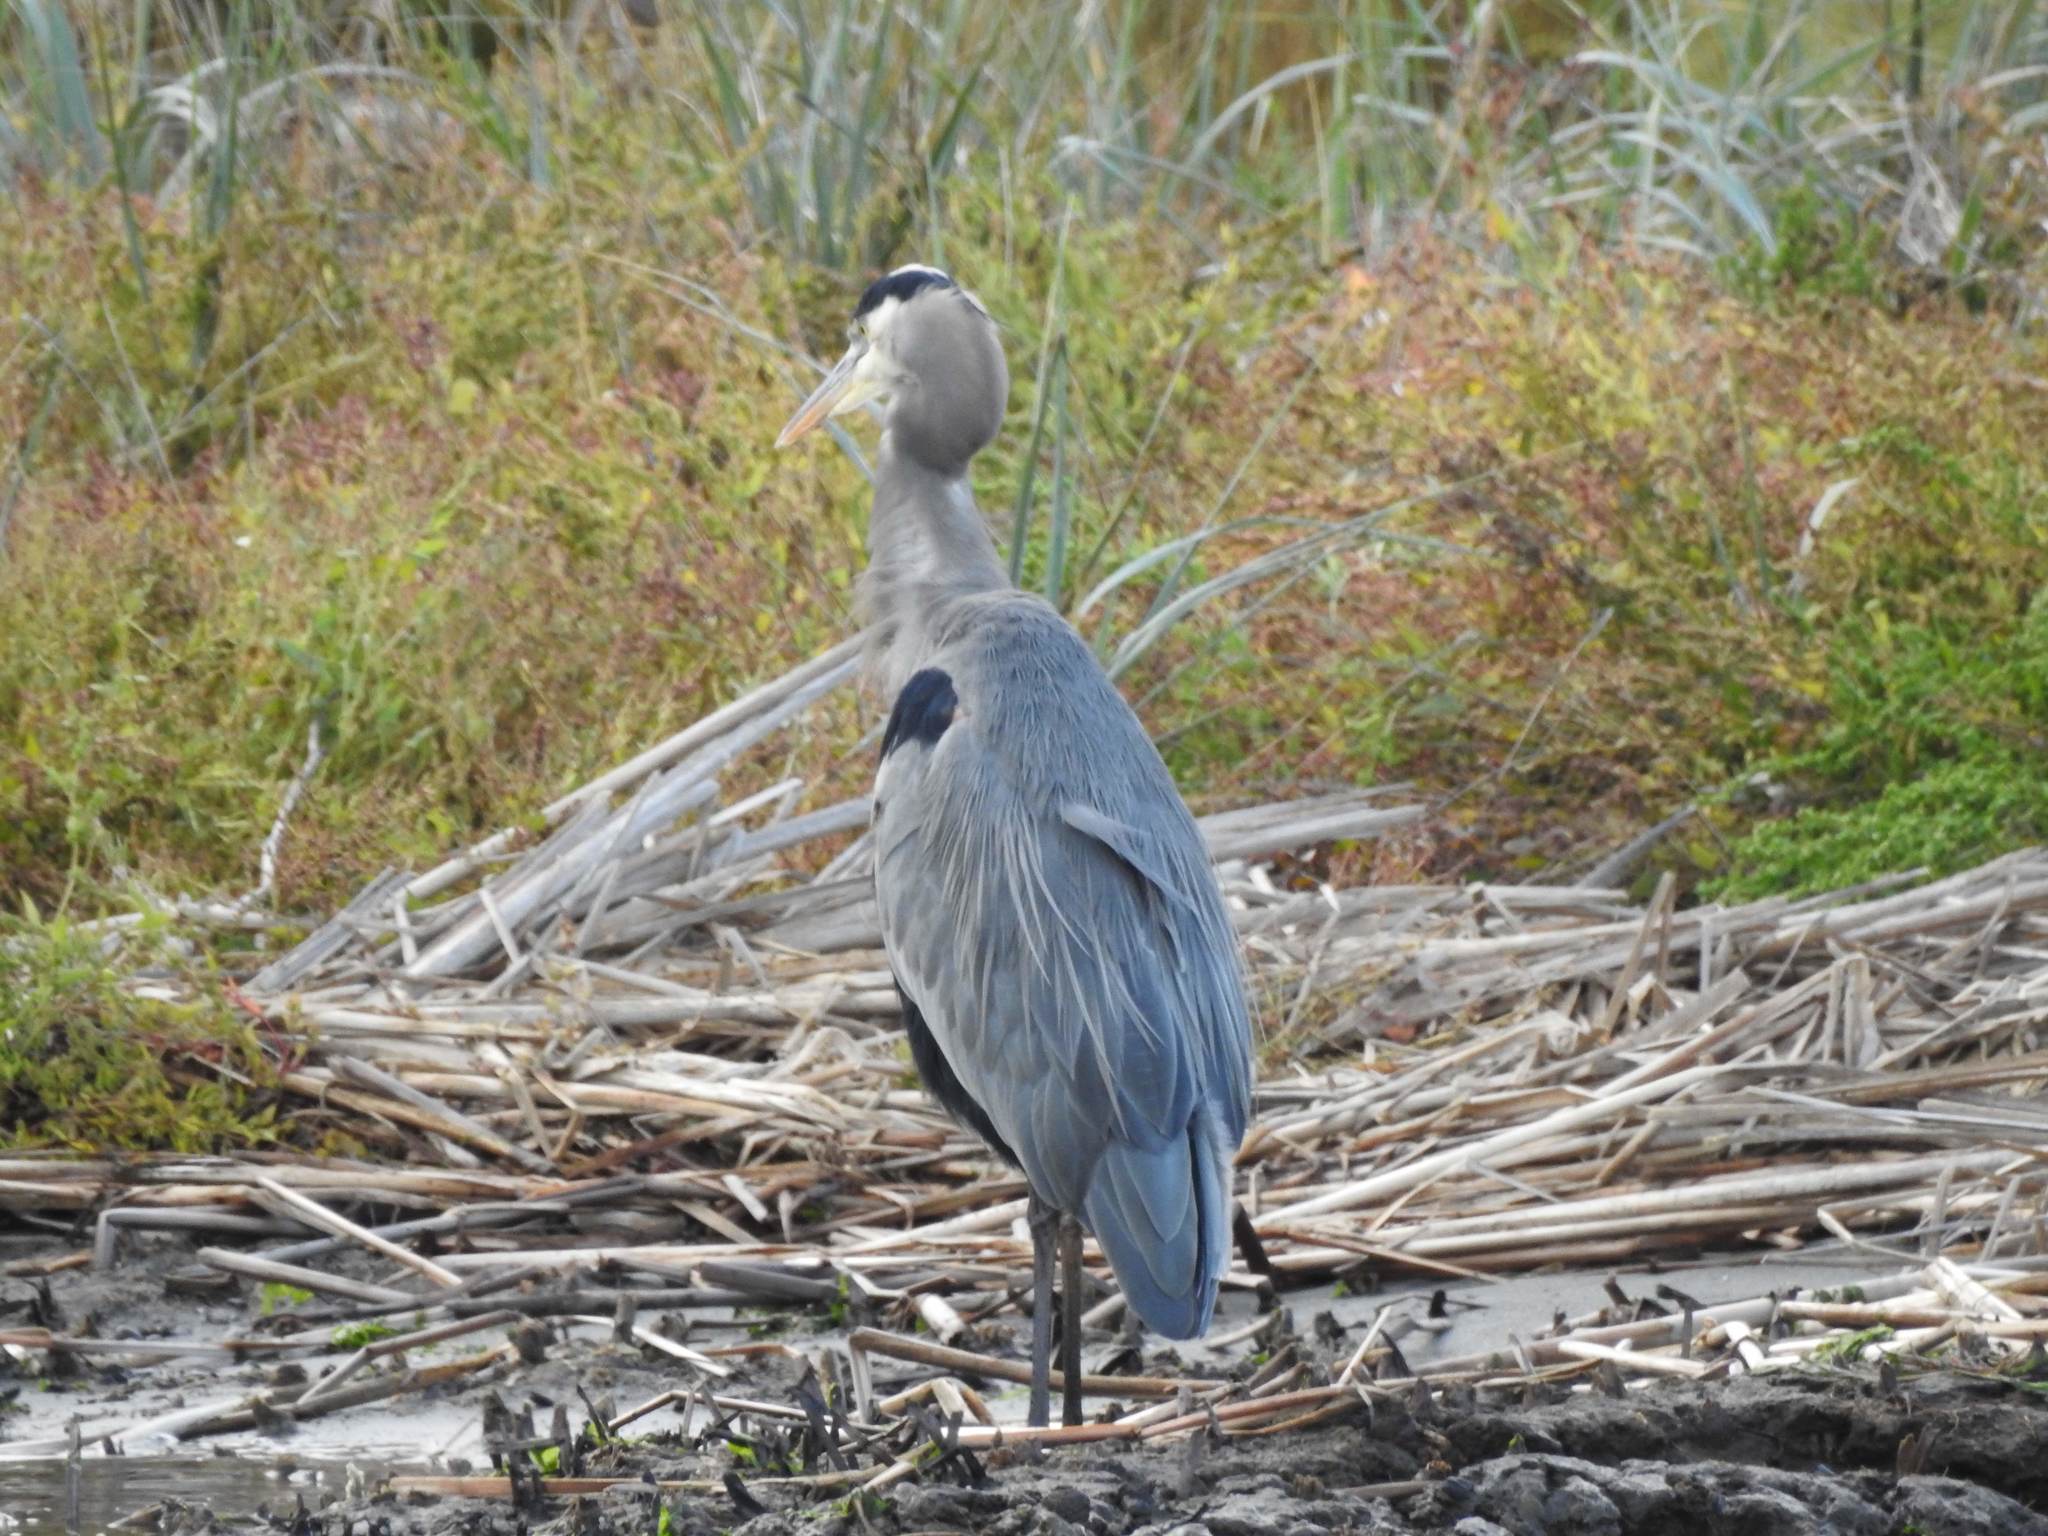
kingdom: Animalia
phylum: Chordata
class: Aves
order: Pelecaniformes
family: Ardeidae
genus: Ardea
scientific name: Ardea herodias
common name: Great blue heron
